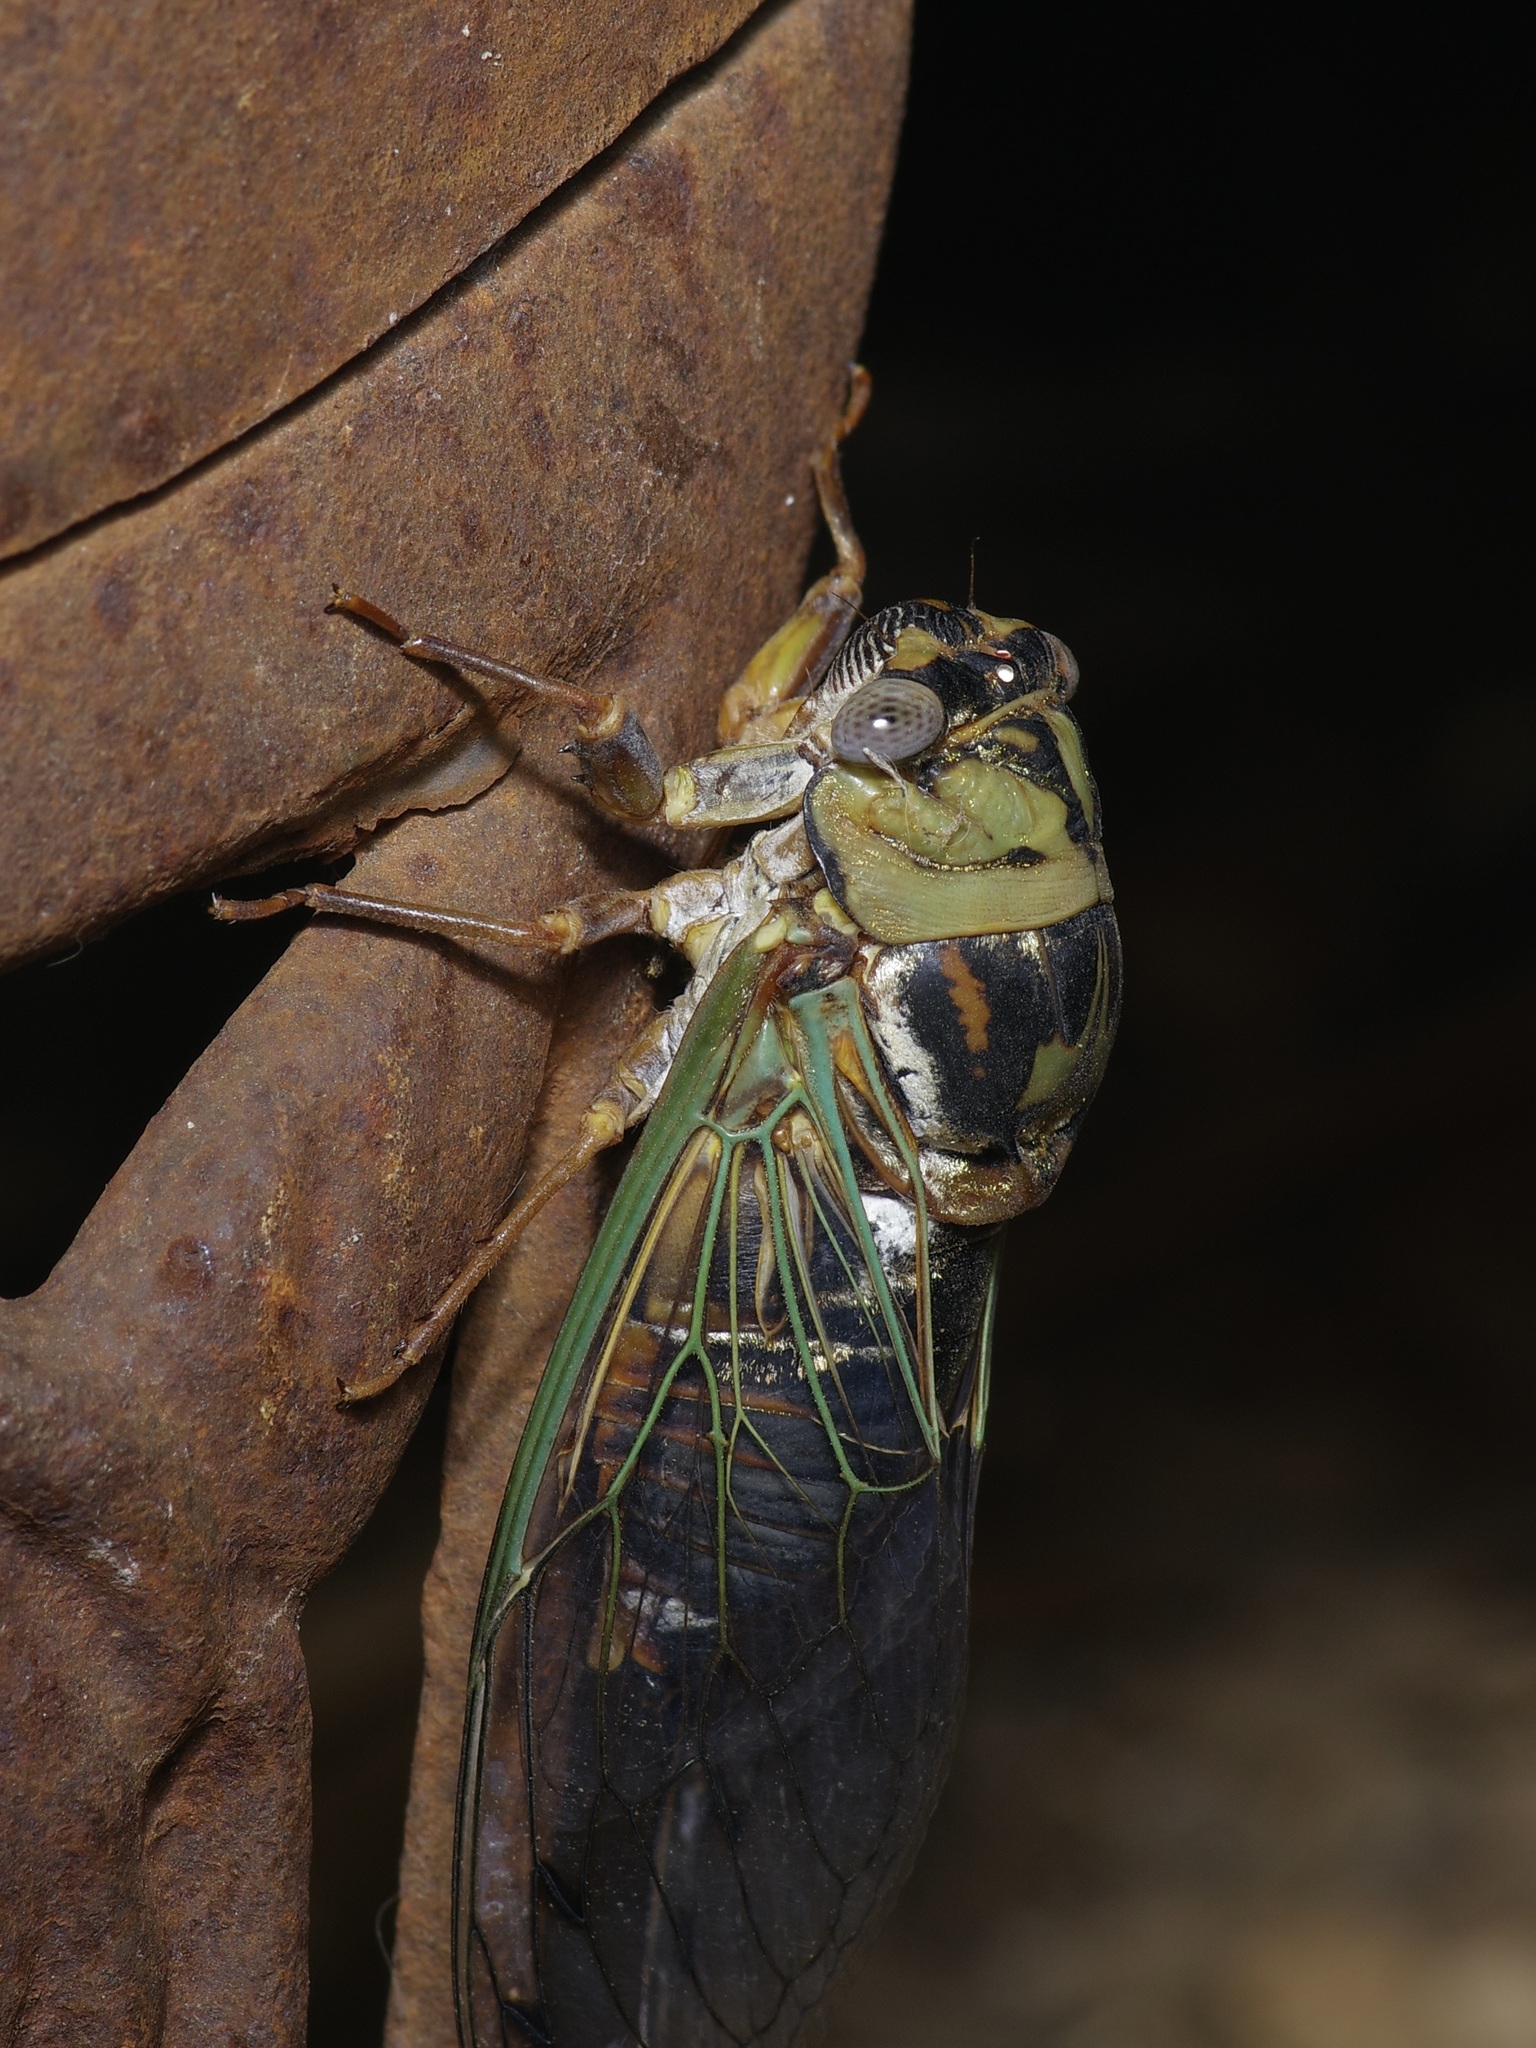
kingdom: Animalia
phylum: Arthropoda
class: Insecta
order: Hemiptera
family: Cicadidae
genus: Megatibicen
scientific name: Megatibicen resh
